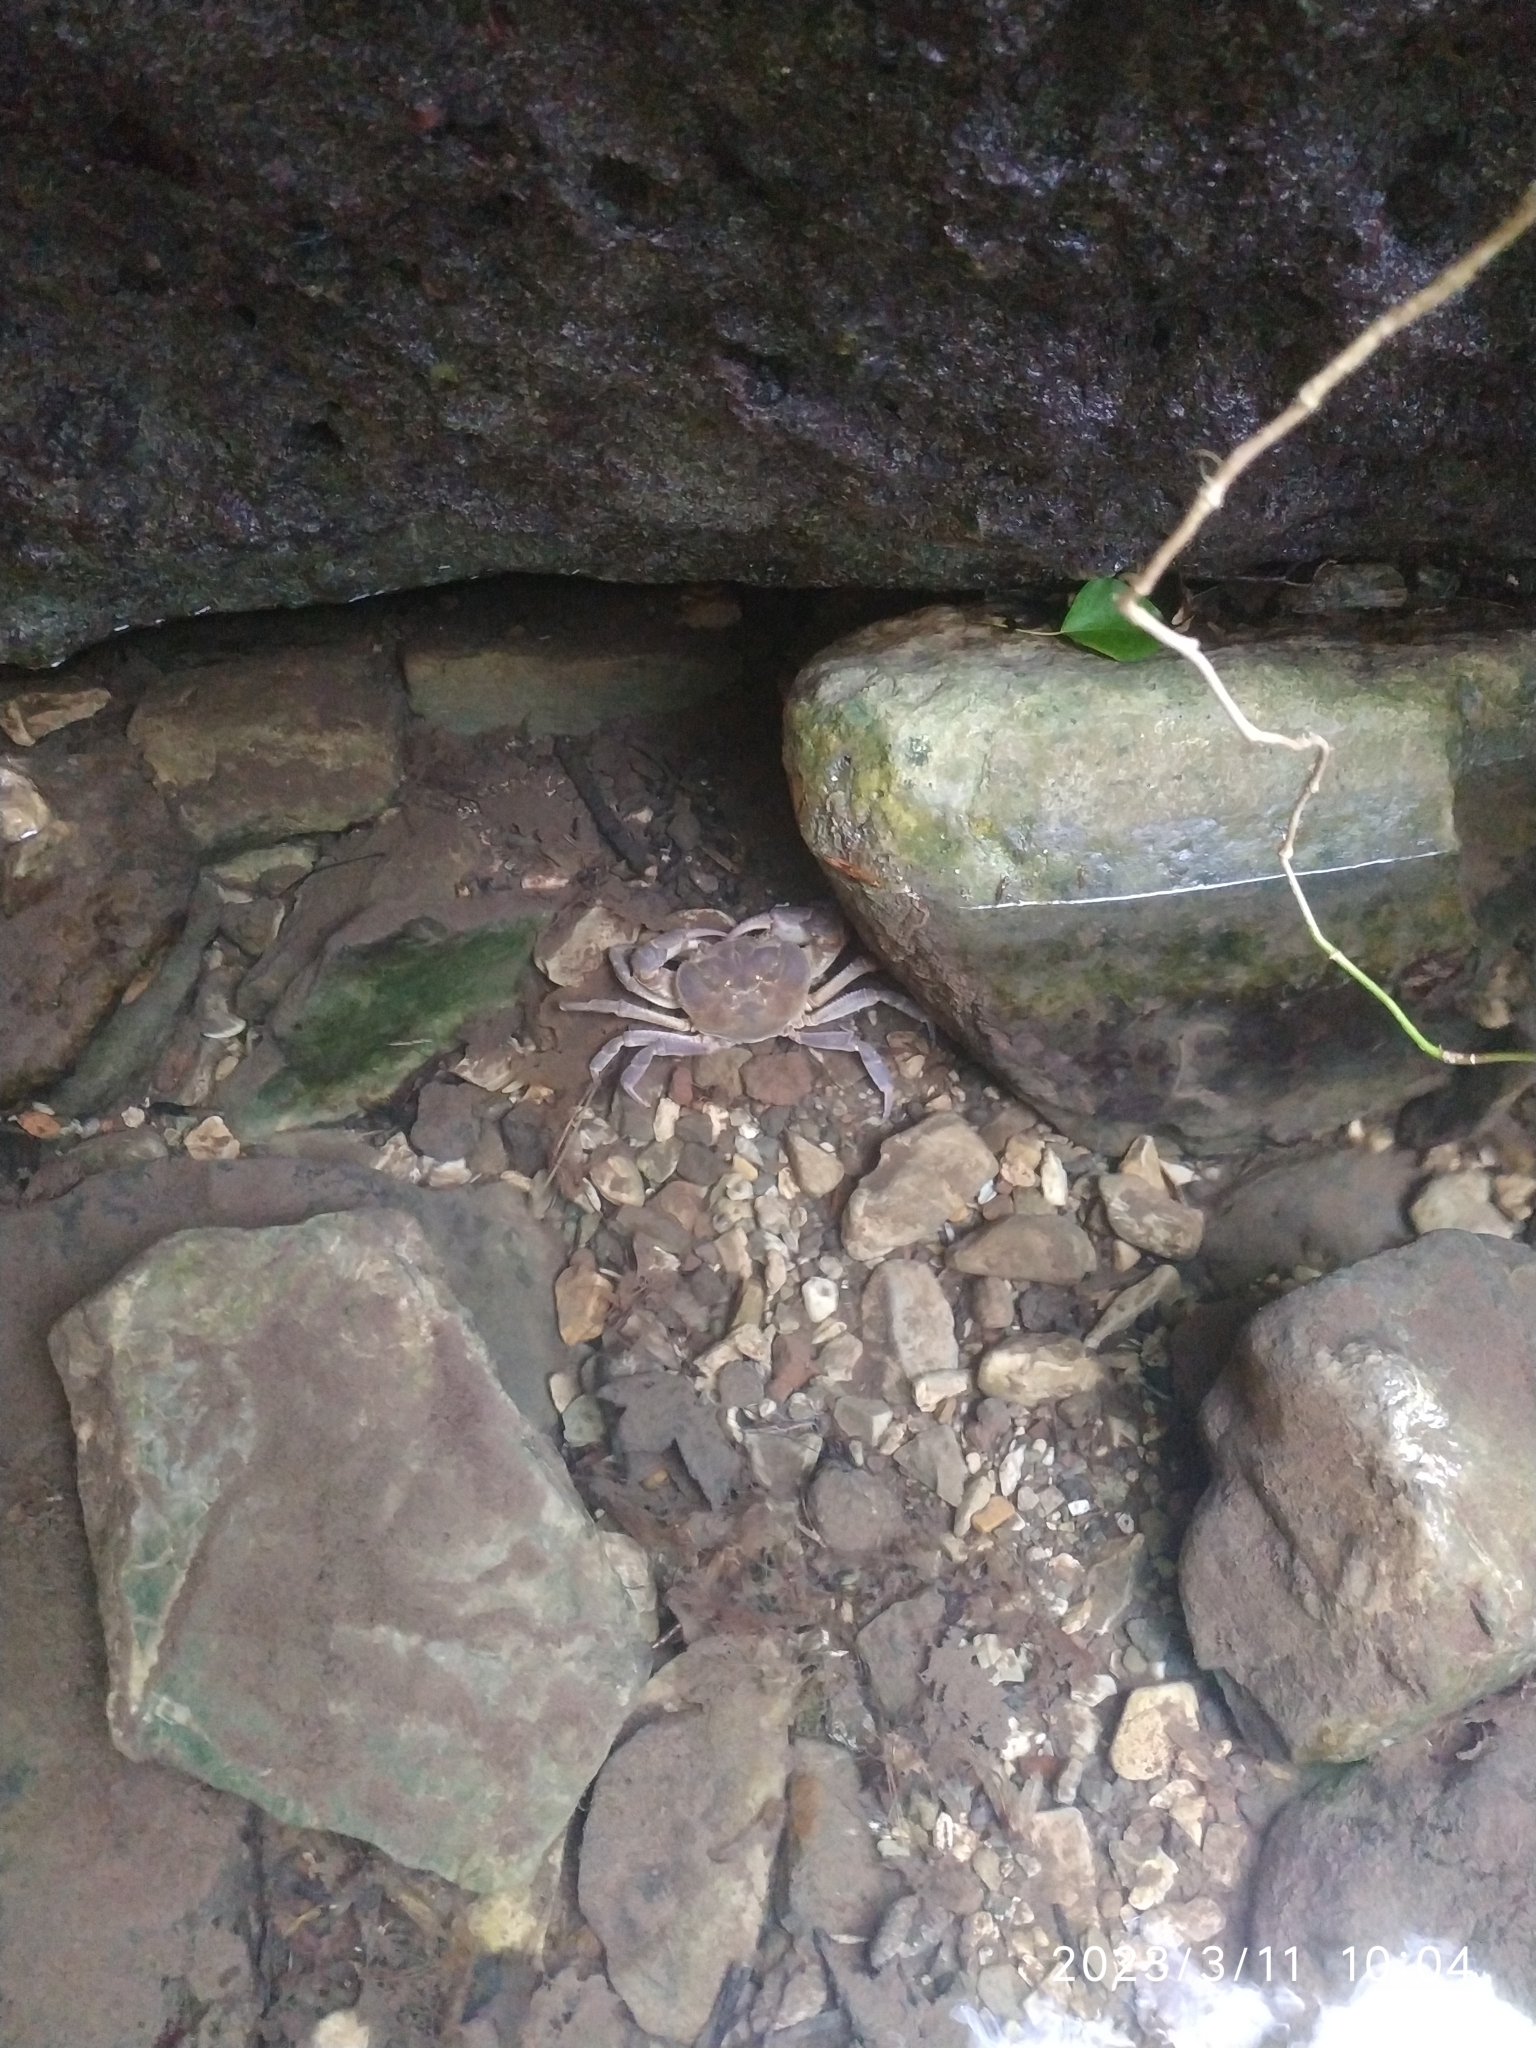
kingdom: Animalia
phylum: Arthropoda
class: Malacostraca
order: Decapoda
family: Potamidae
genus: Potamon
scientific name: Potamon fluviatile
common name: Italian freshwater crab
